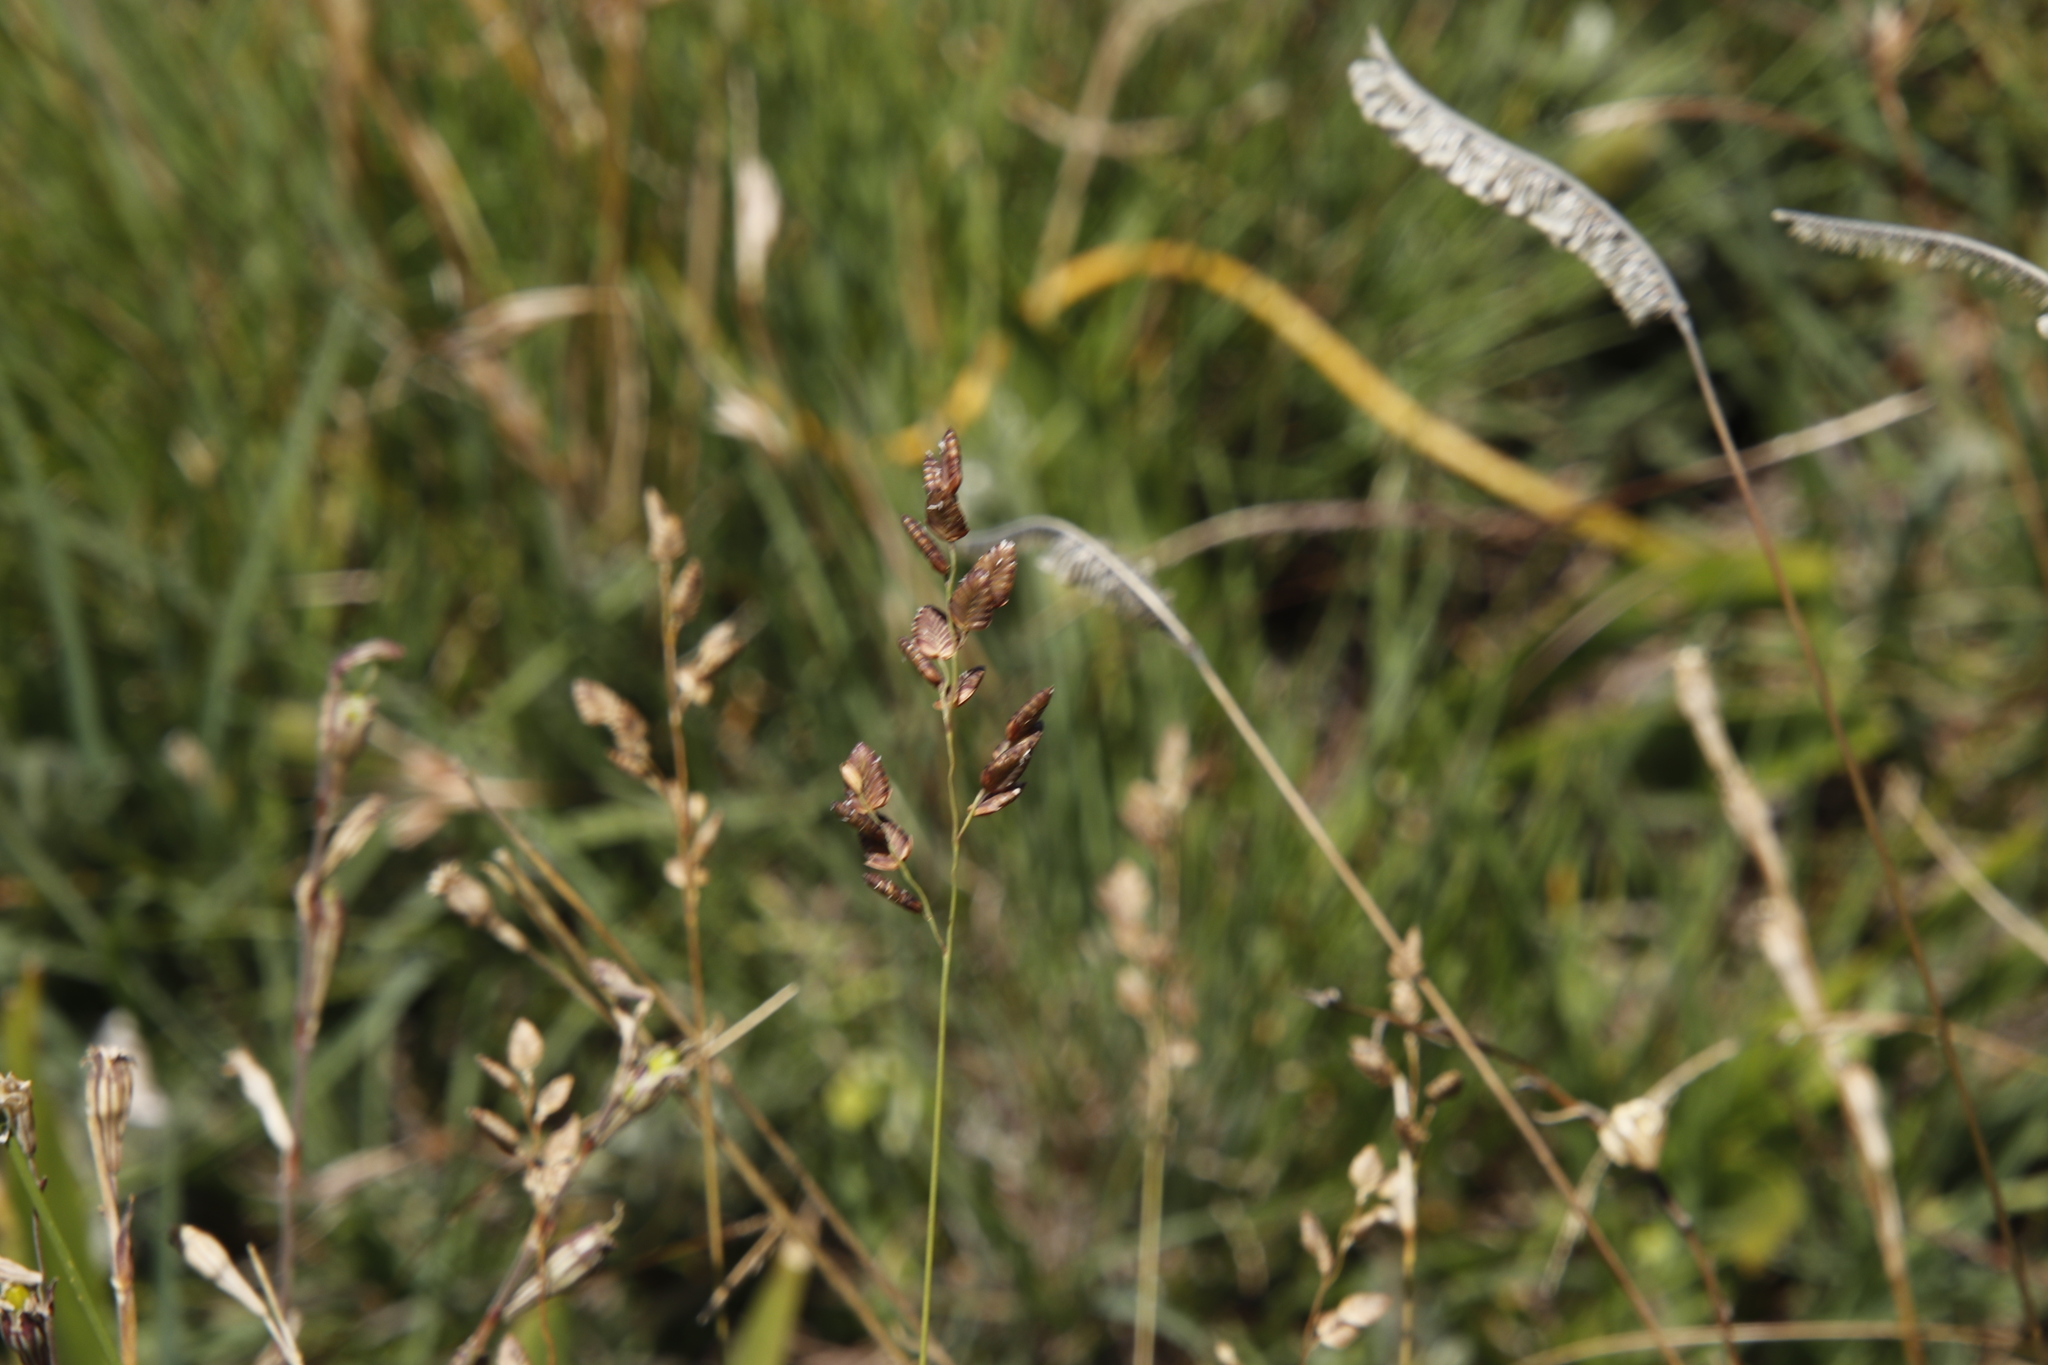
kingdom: Plantae
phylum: Tracheophyta
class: Liliopsida
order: Poales
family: Poaceae
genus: Harpochloa
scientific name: Harpochloa falx
